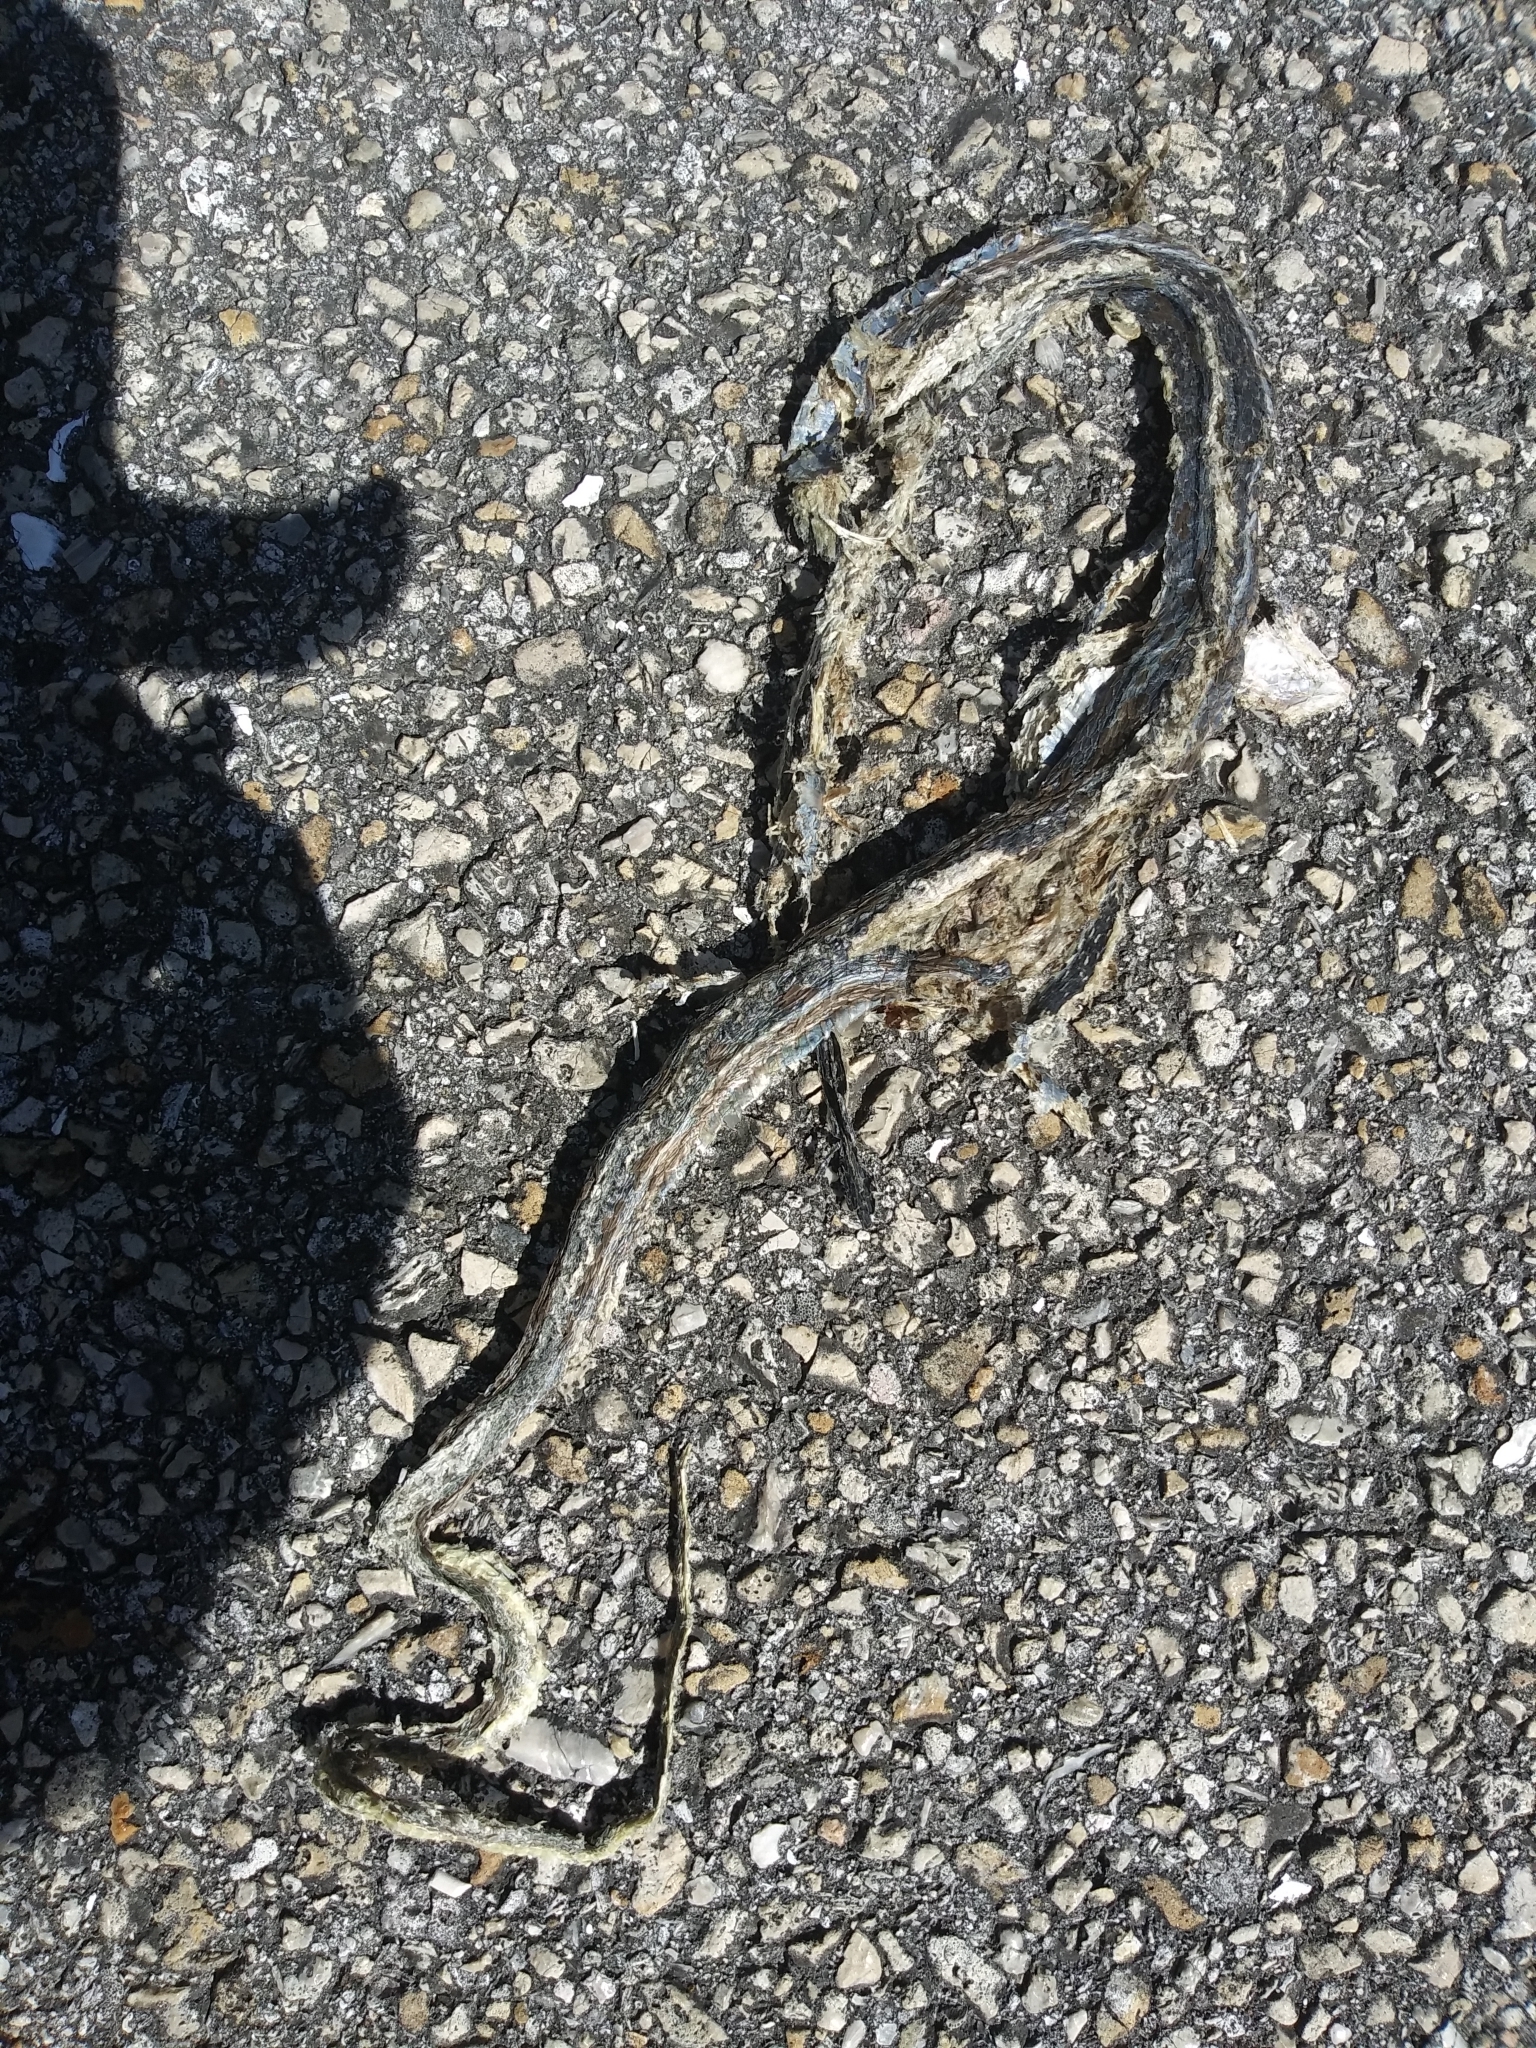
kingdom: Animalia
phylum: Chordata
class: Squamata
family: Colubridae
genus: Thamnophis
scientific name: Thamnophis saurita
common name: Eastern ribbonsnake
